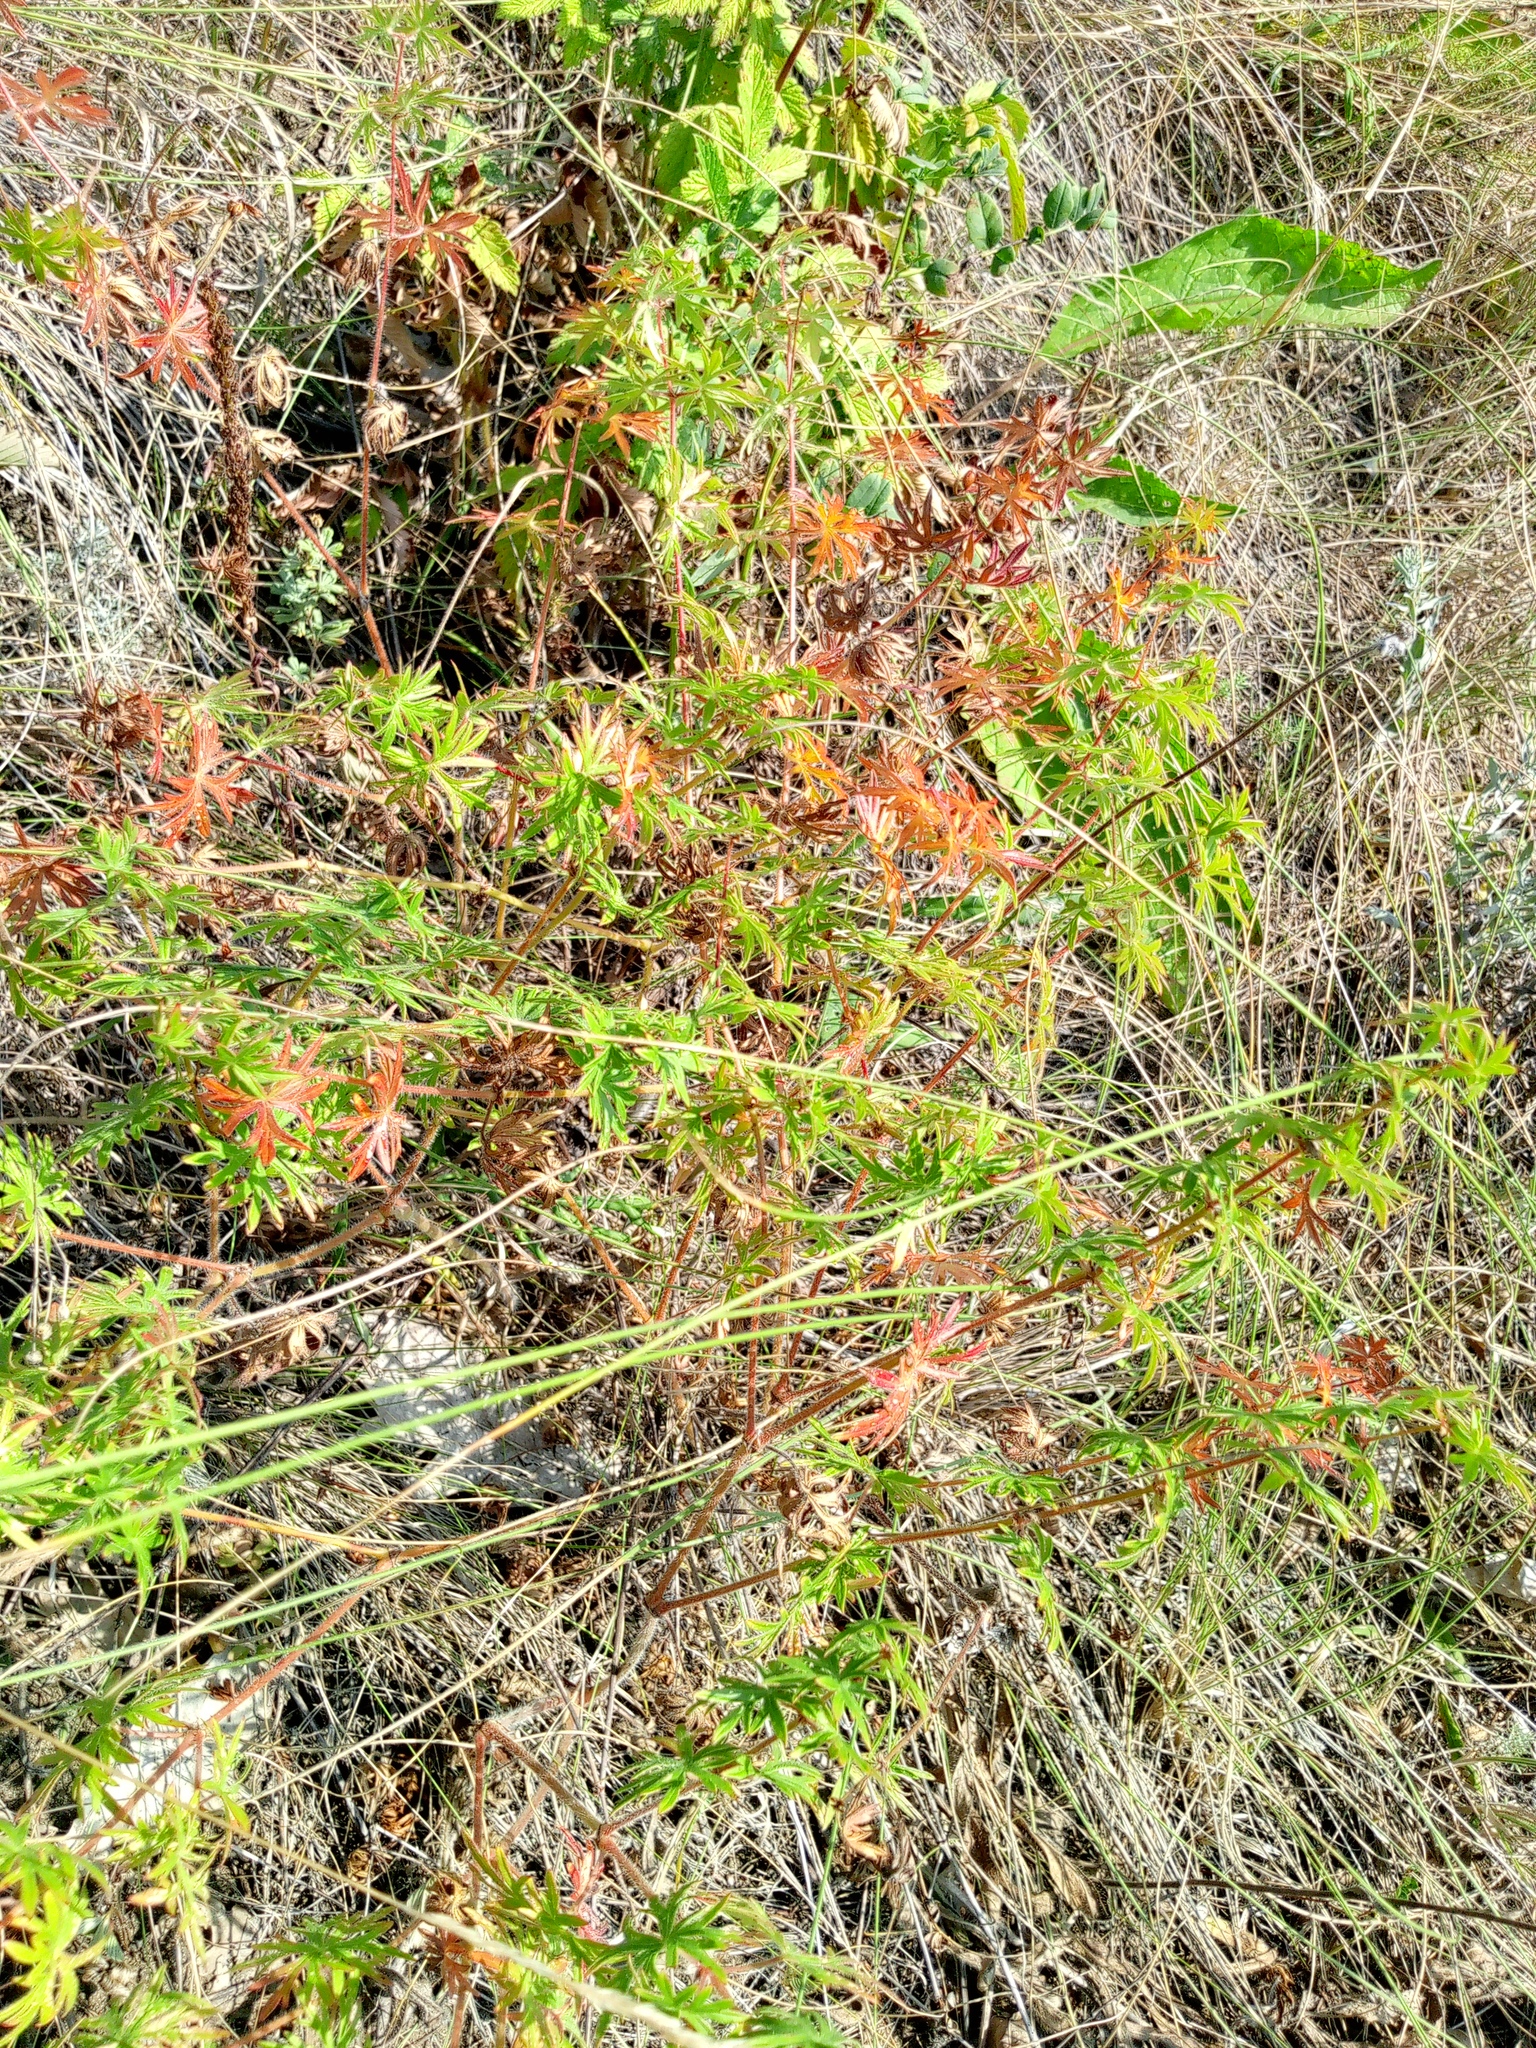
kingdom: Plantae
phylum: Tracheophyta
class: Magnoliopsida
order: Geraniales
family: Geraniaceae
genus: Geranium
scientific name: Geranium sanguineum
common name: Bloody crane's-bill
